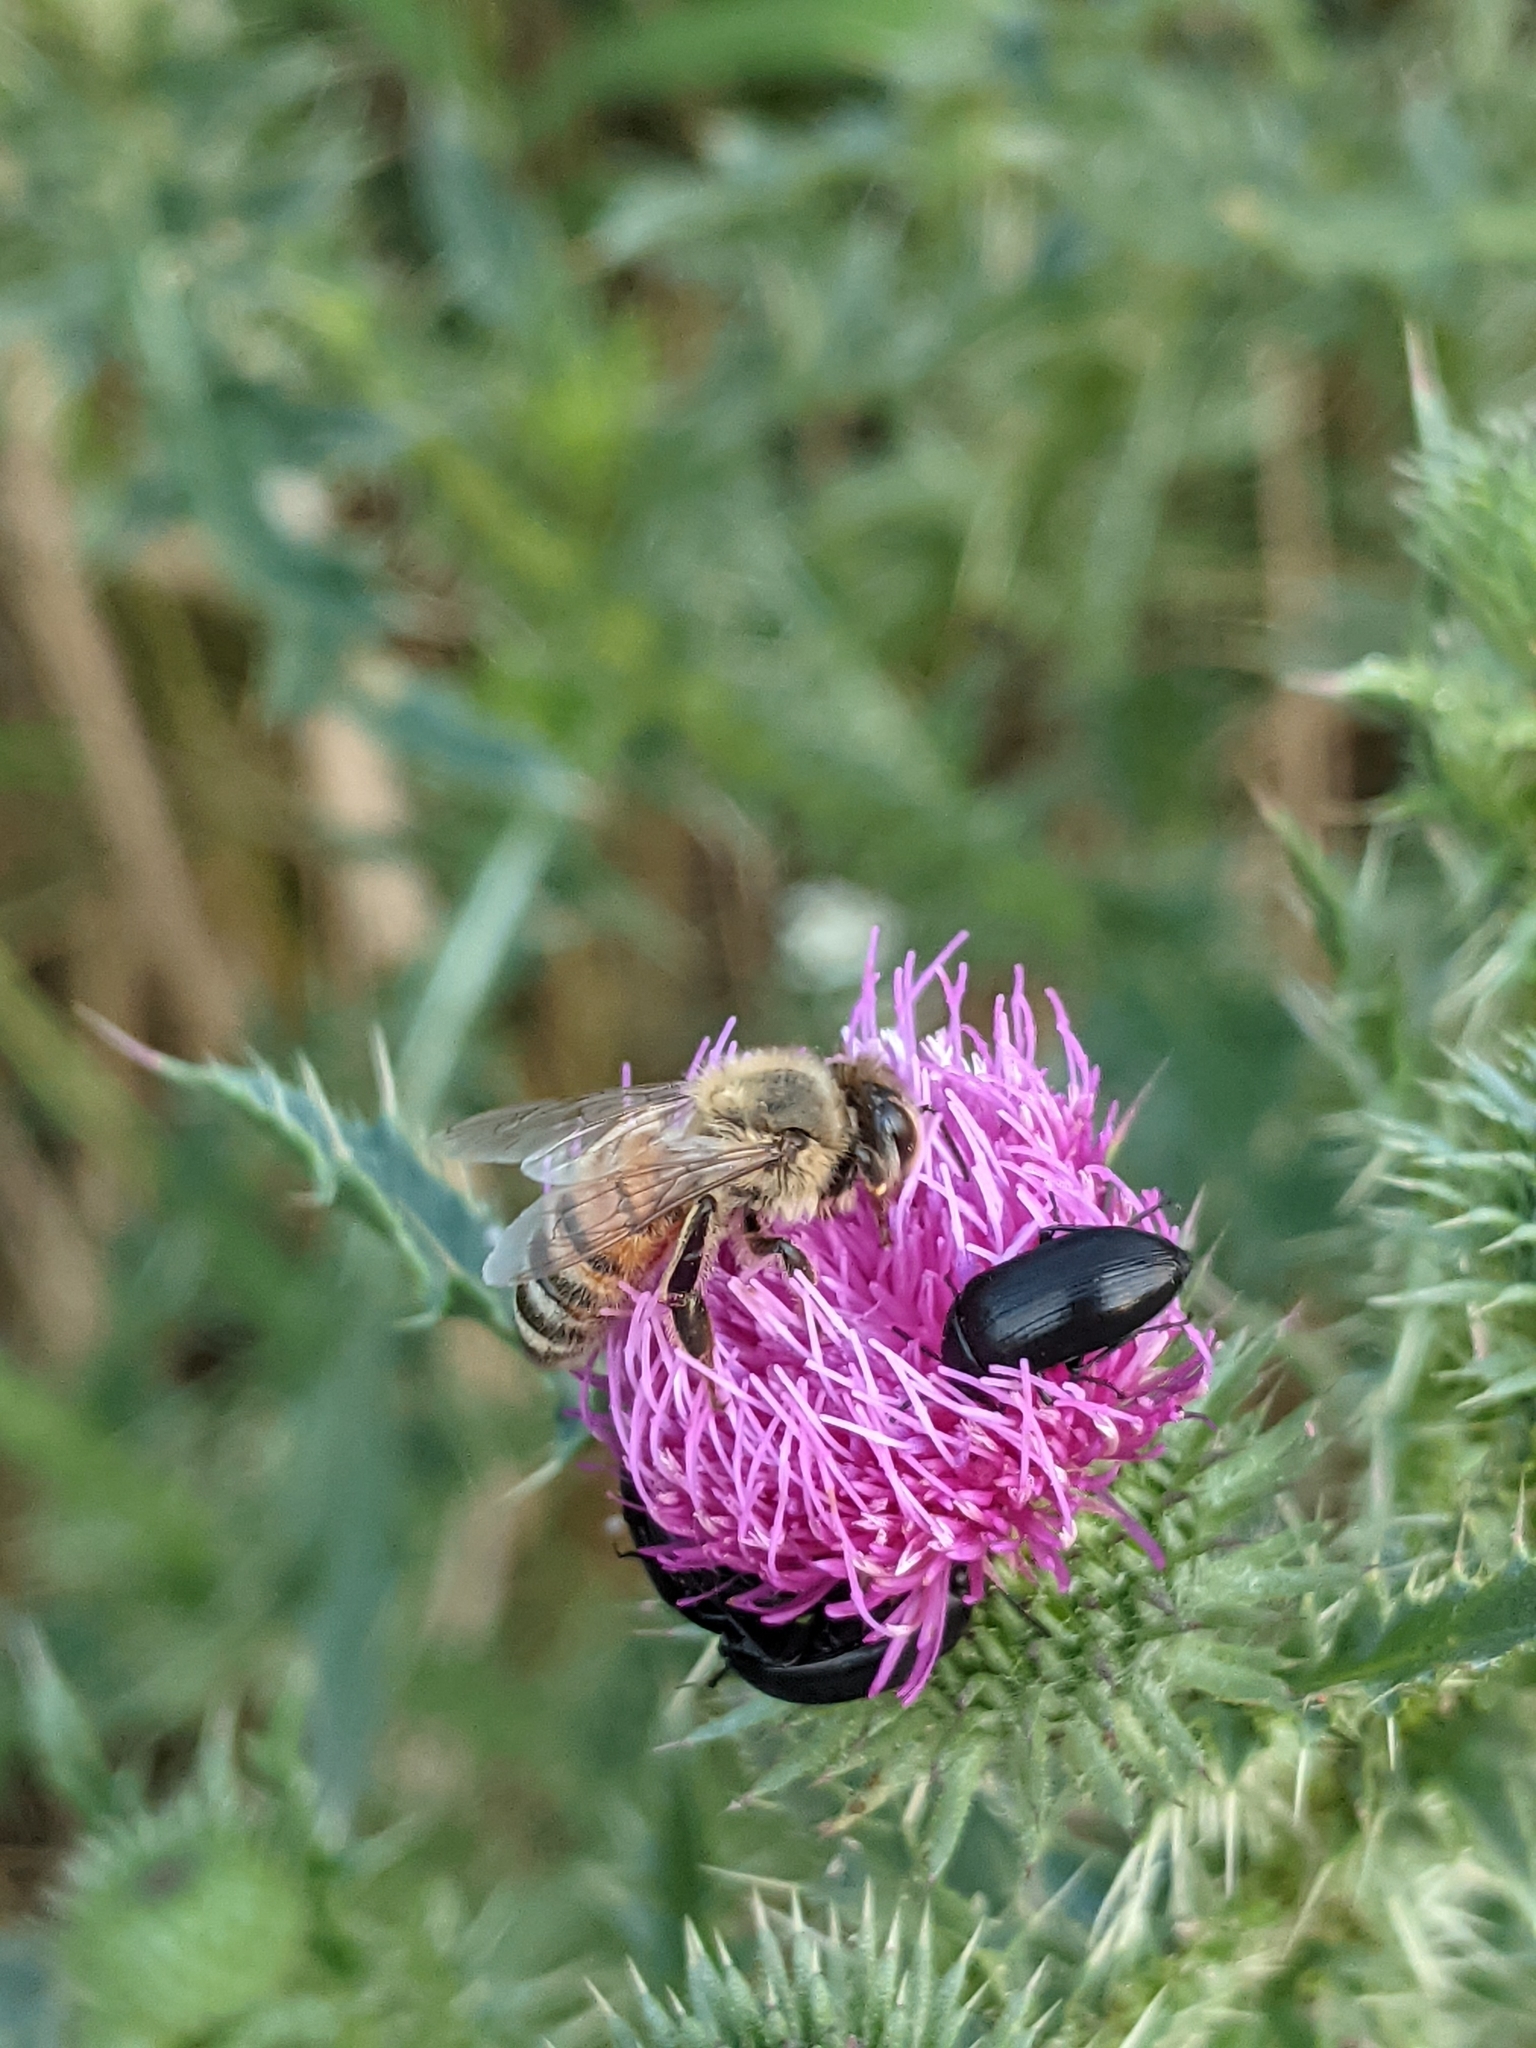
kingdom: Animalia
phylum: Arthropoda
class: Insecta
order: Hymenoptera
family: Apidae
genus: Apis
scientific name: Apis mellifera
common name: Honey bee
